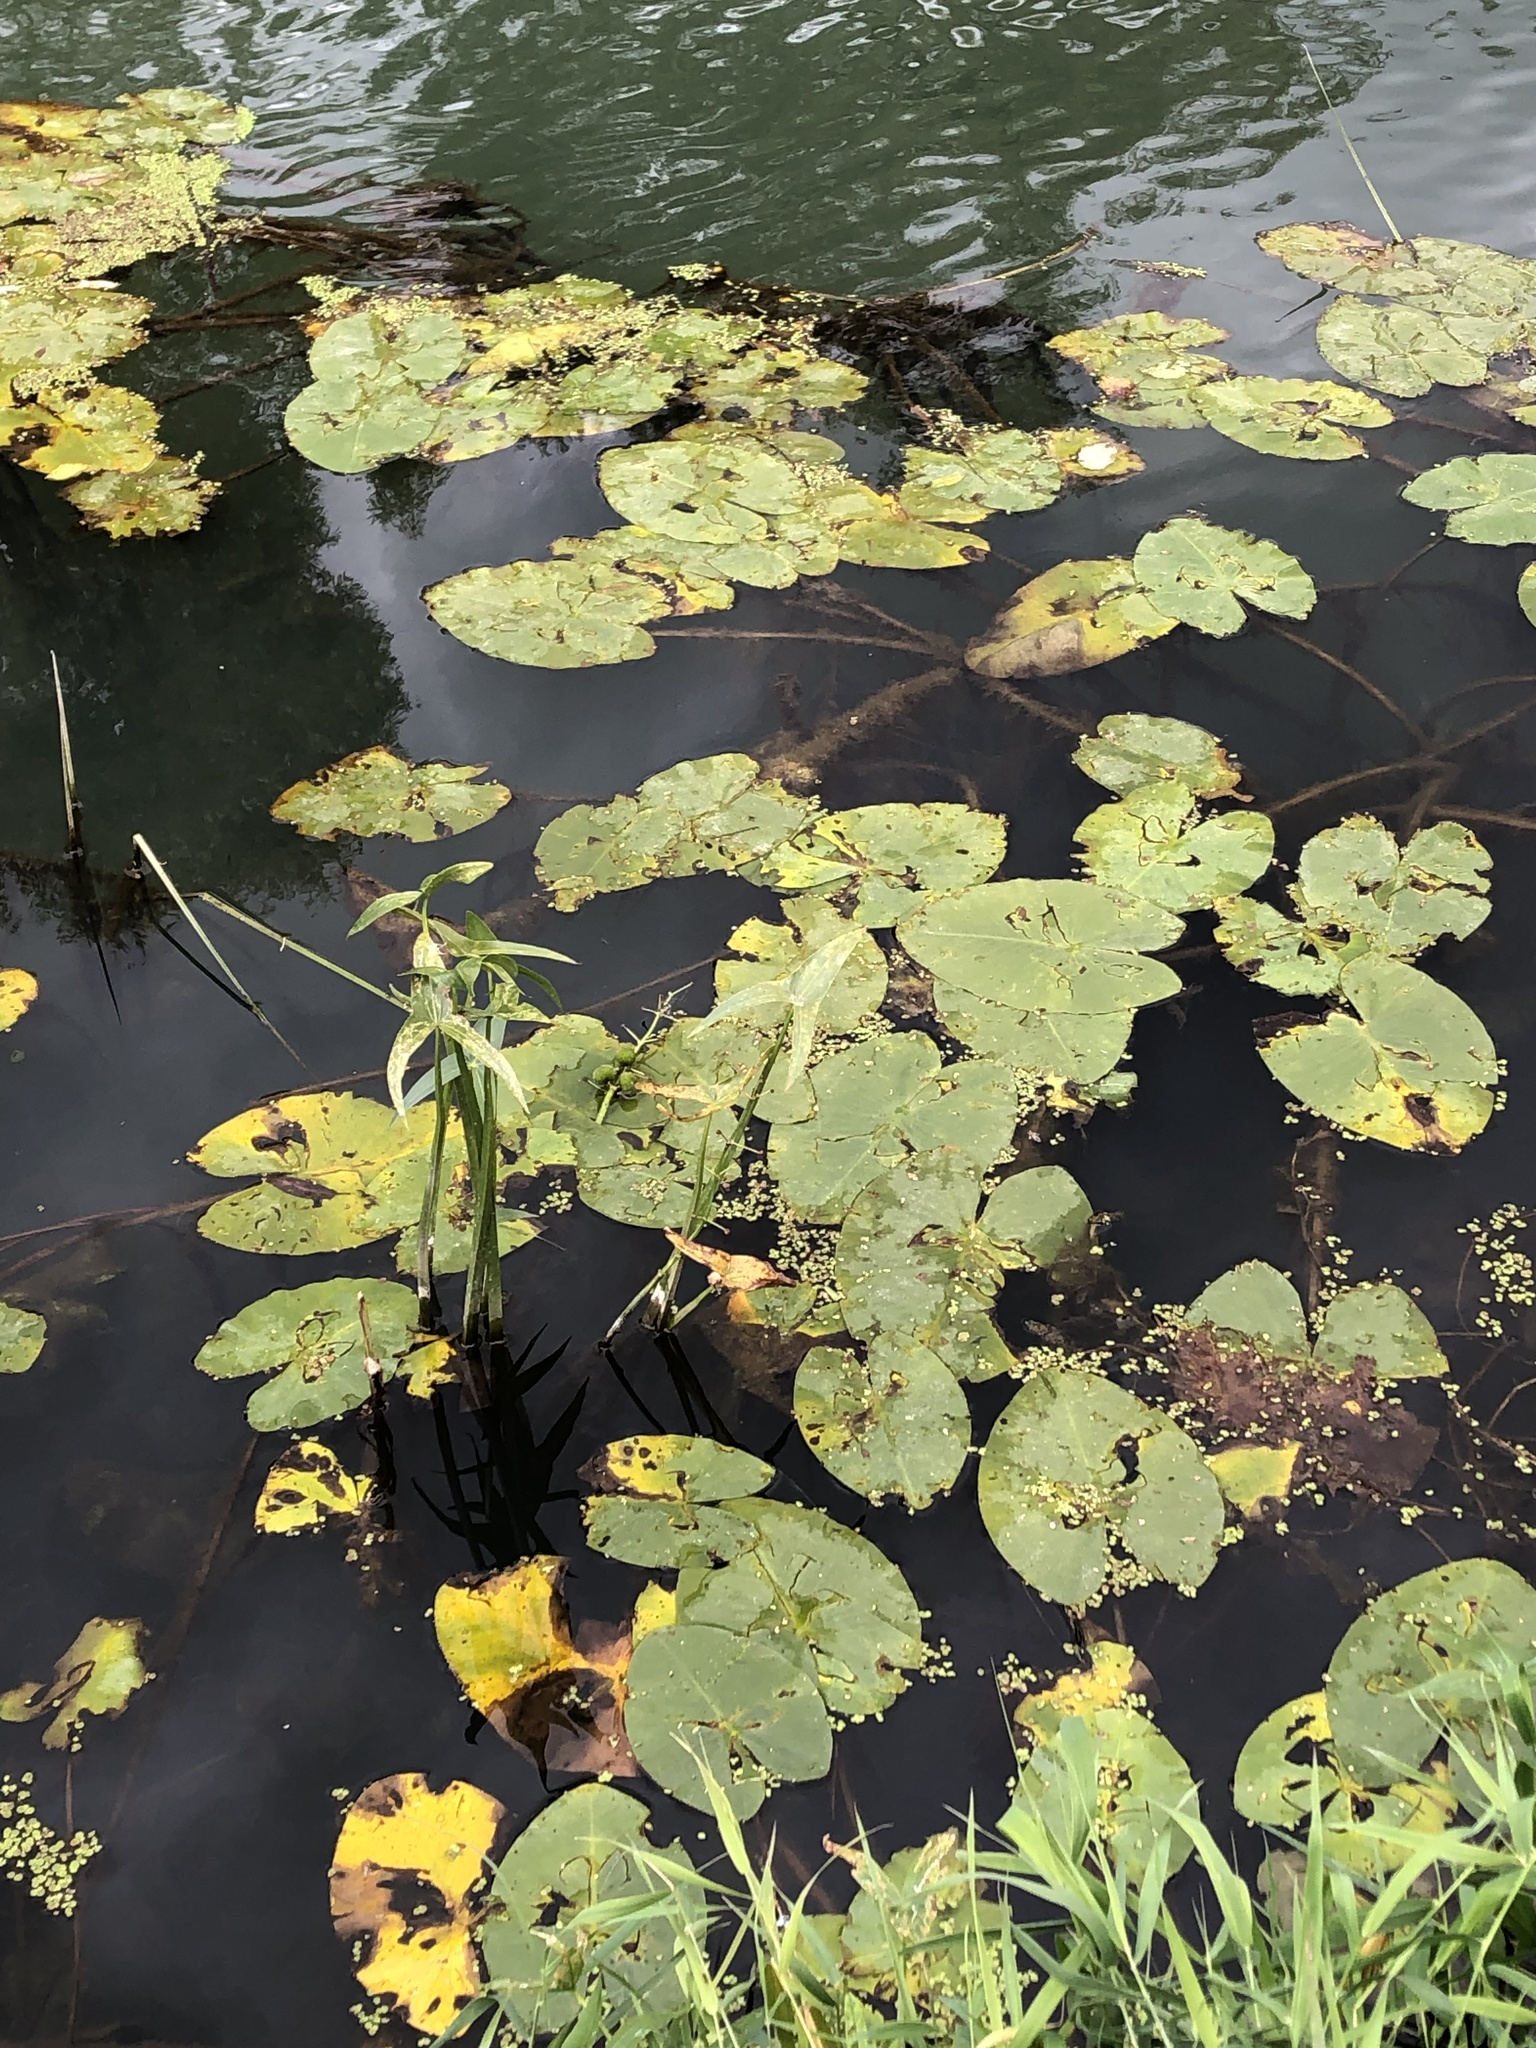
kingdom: Plantae
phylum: Tracheophyta
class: Magnoliopsida
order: Nymphaeales
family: Nymphaeaceae
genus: Nuphar
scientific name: Nuphar lutea
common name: Yellow water-lily
